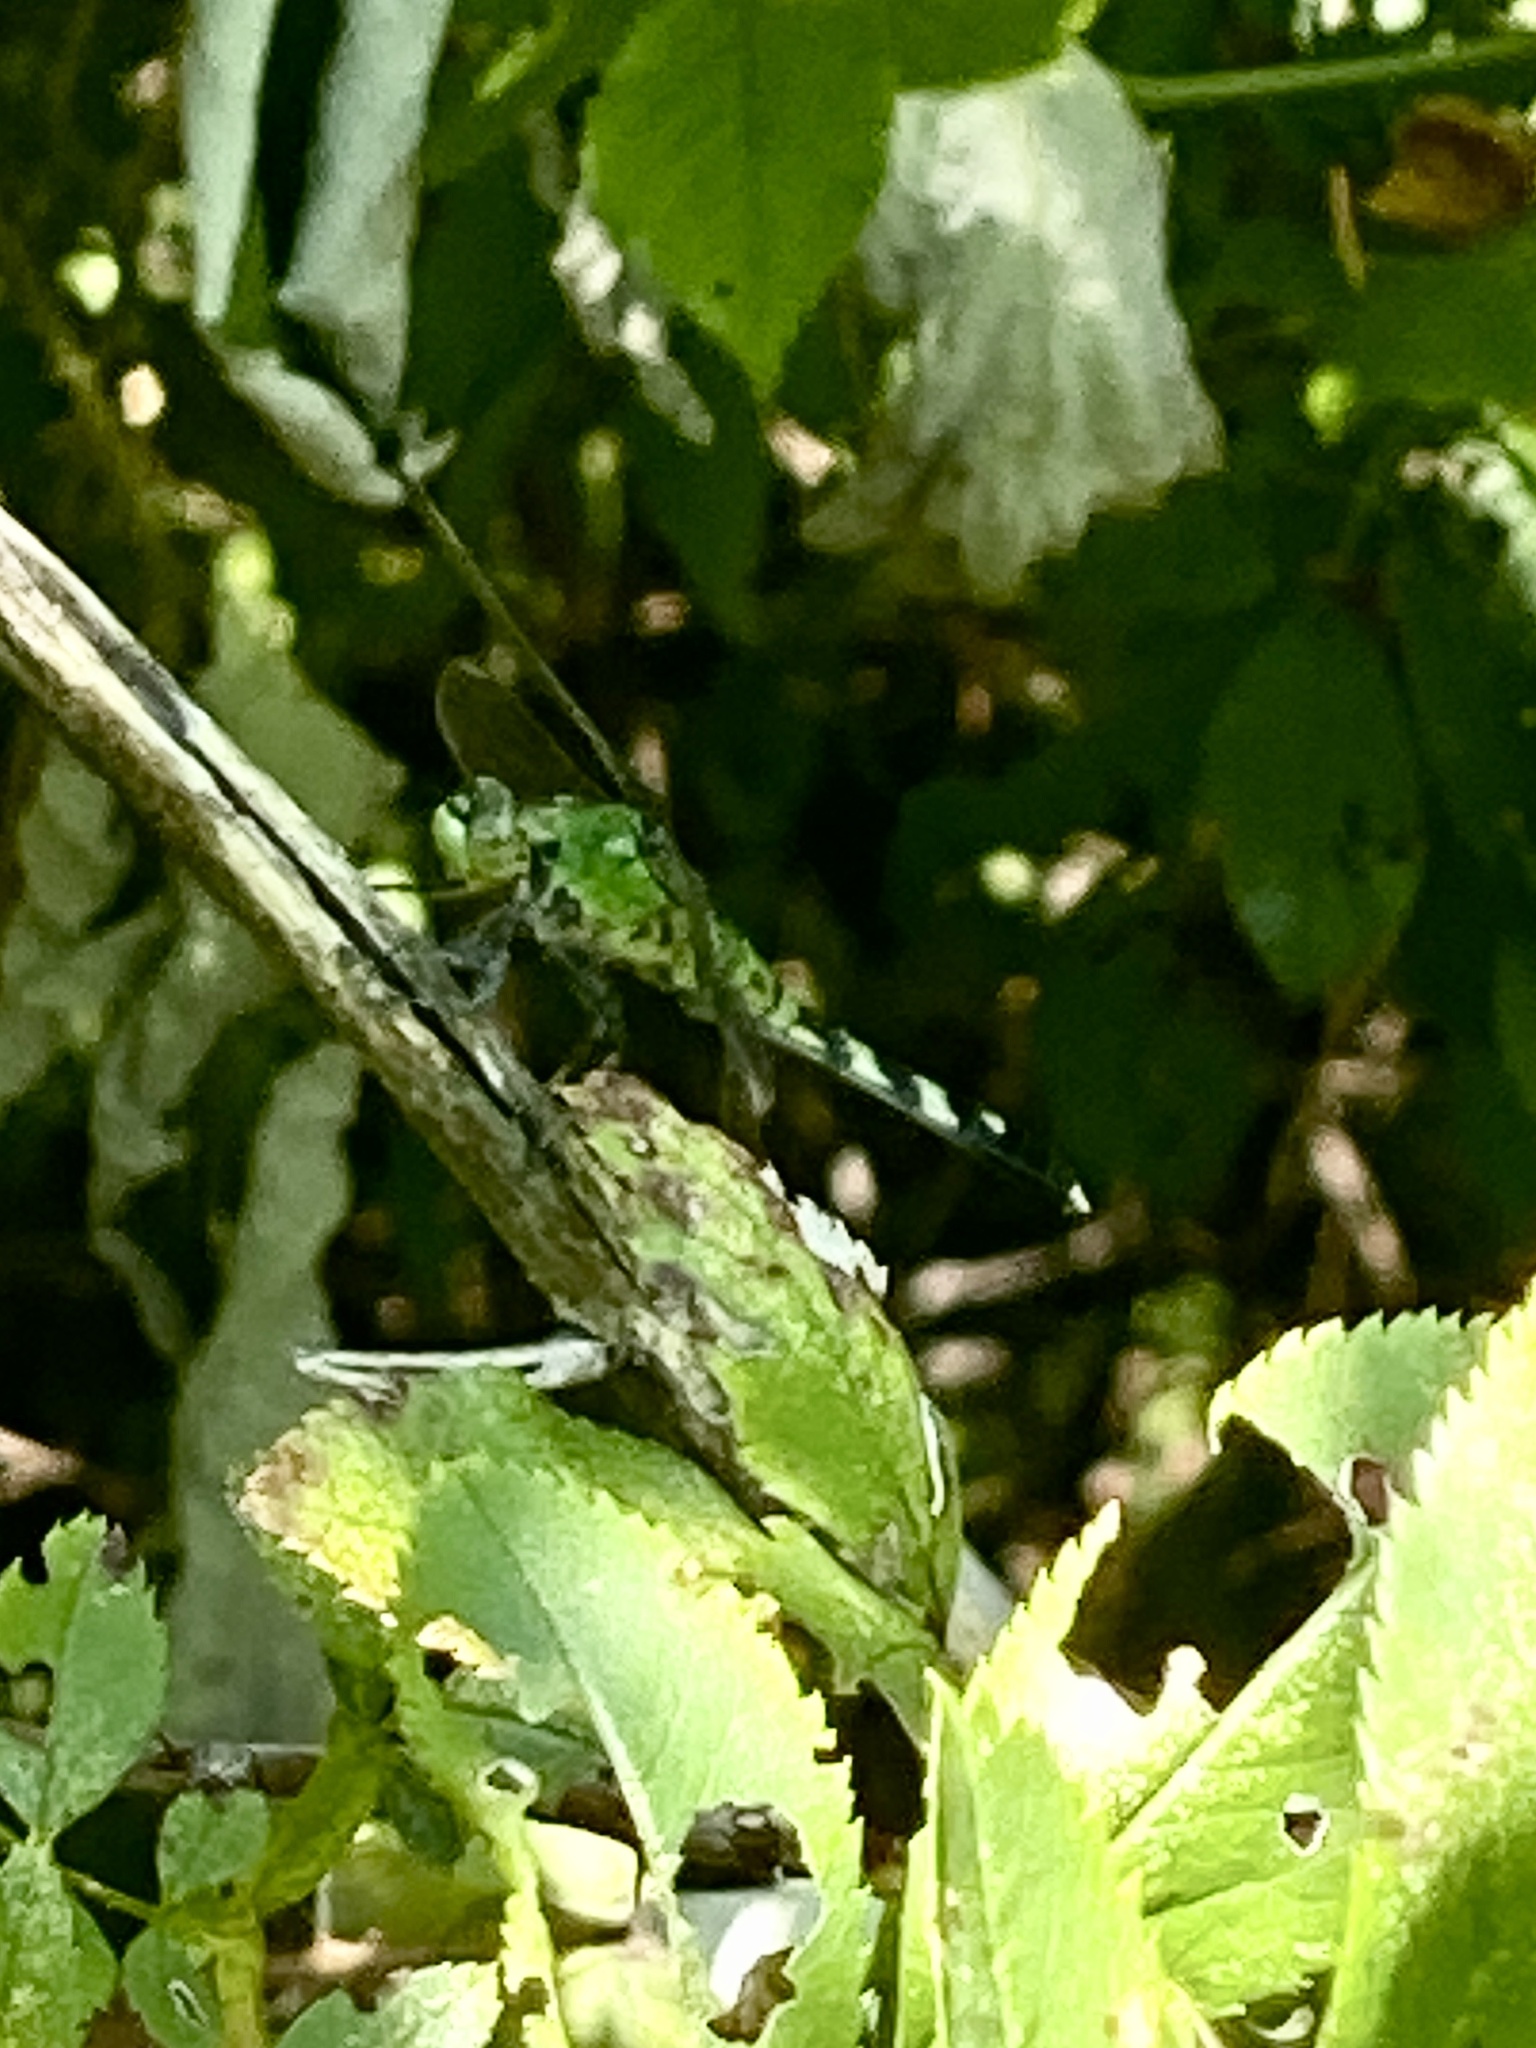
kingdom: Animalia
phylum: Arthropoda
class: Insecta
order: Odonata
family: Libellulidae
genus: Erythemis
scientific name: Erythemis simplicicollis
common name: Eastern pondhawk
